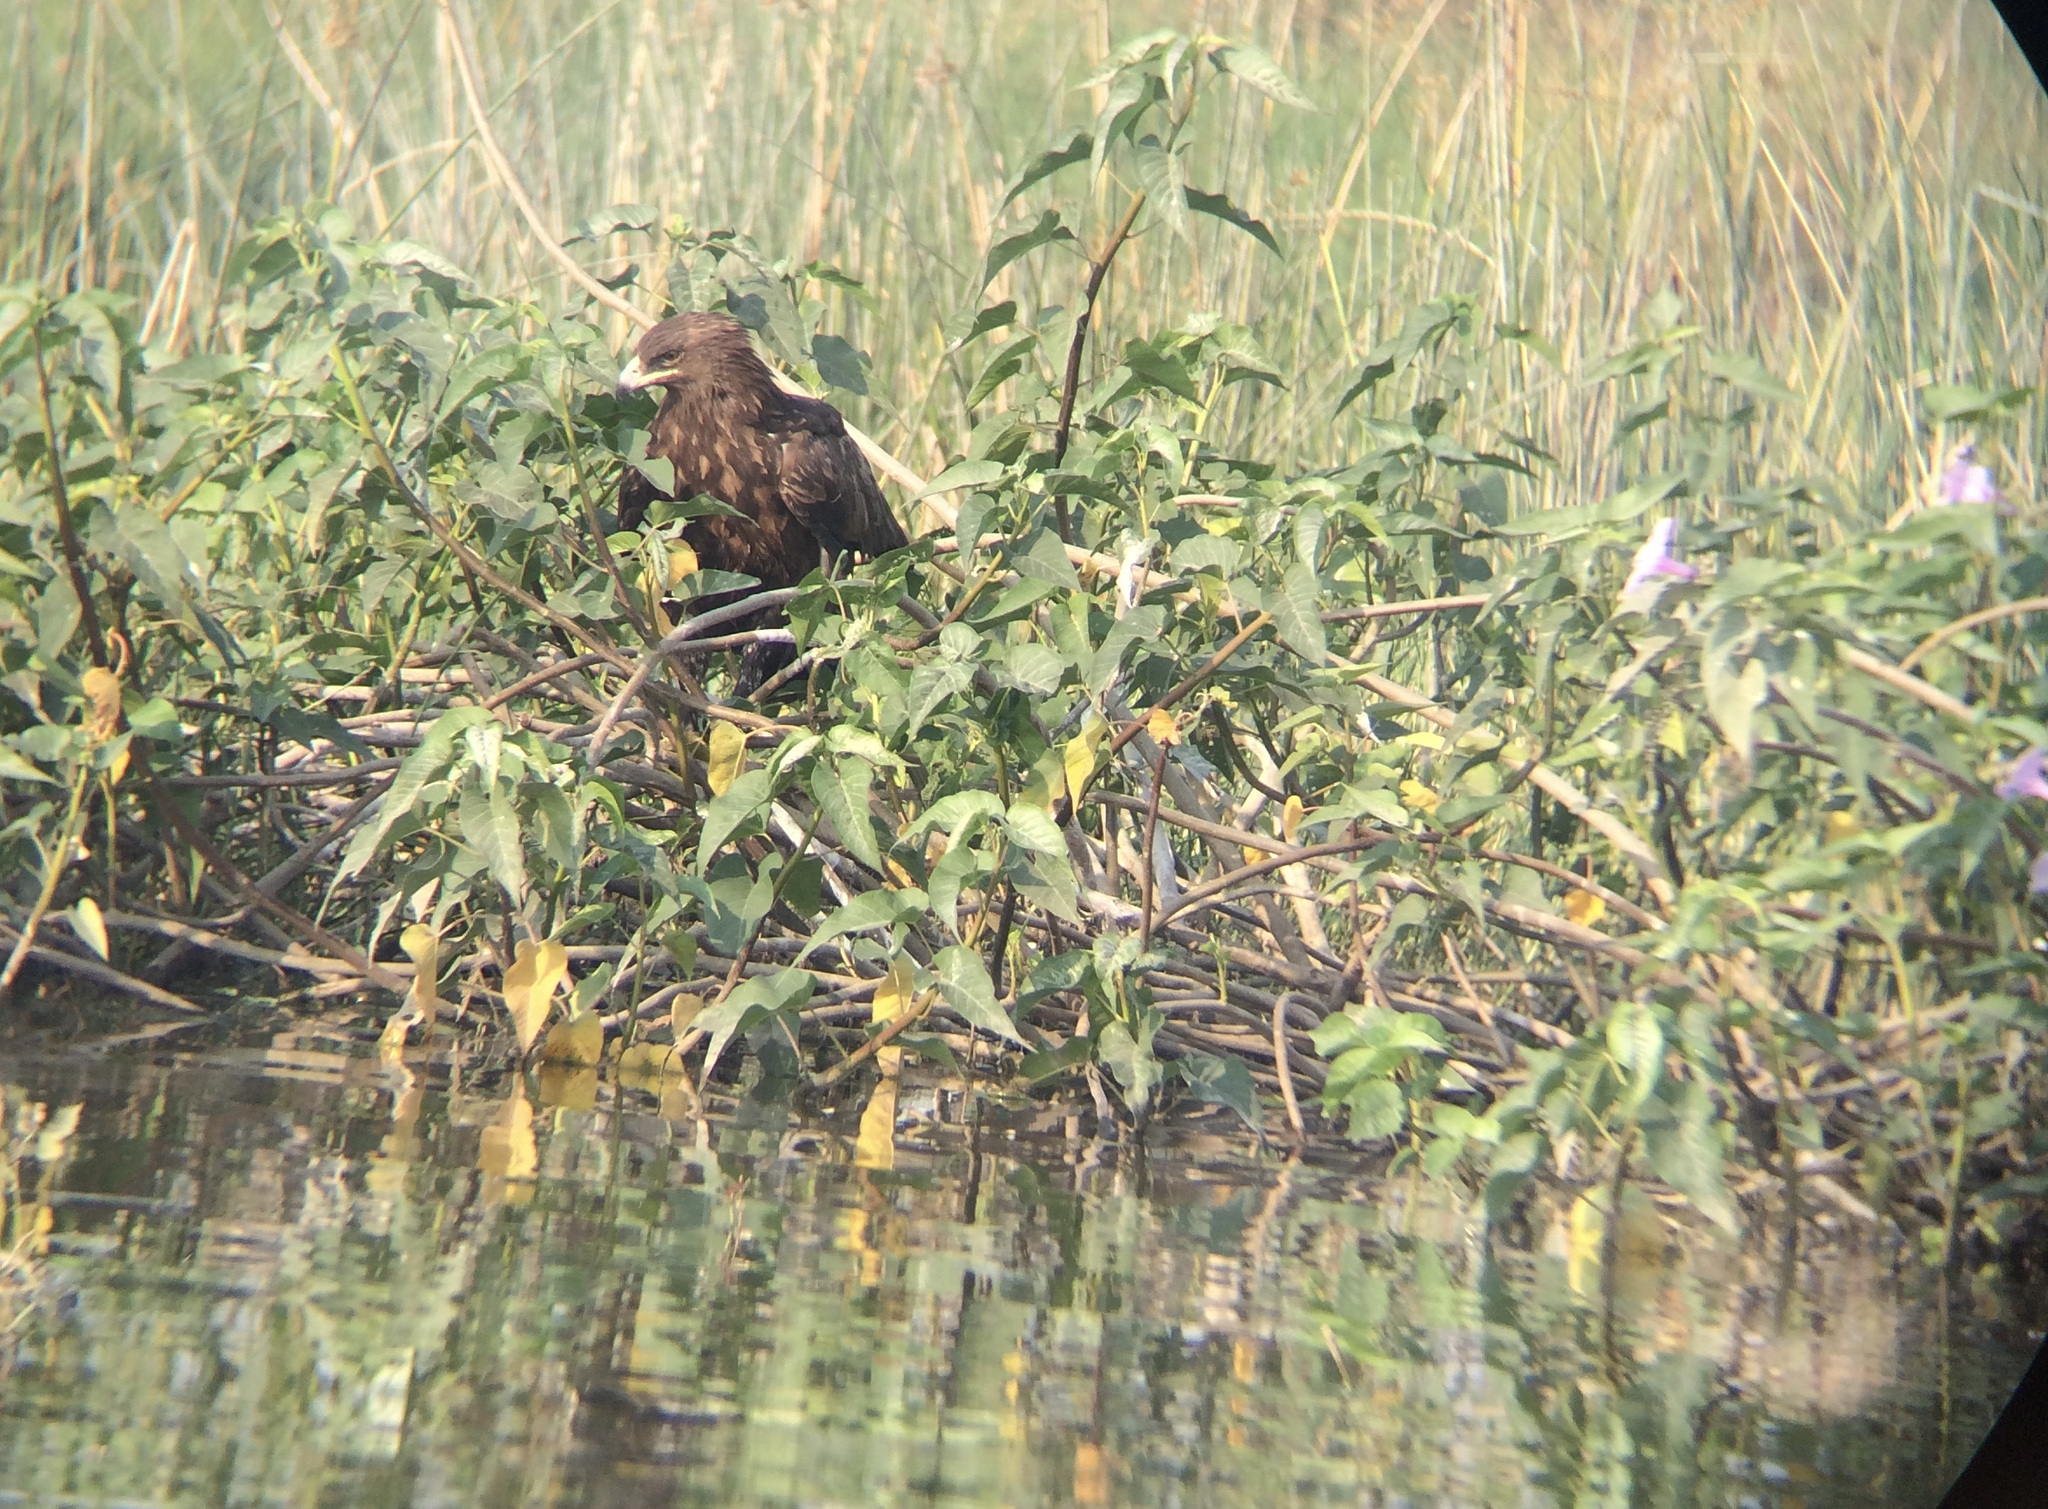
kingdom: Animalia
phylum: Chordata
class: Aves
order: Accipitriformes
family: Accipitridae
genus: Aquila
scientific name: Aquila clanga
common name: Greater spotted eagle
